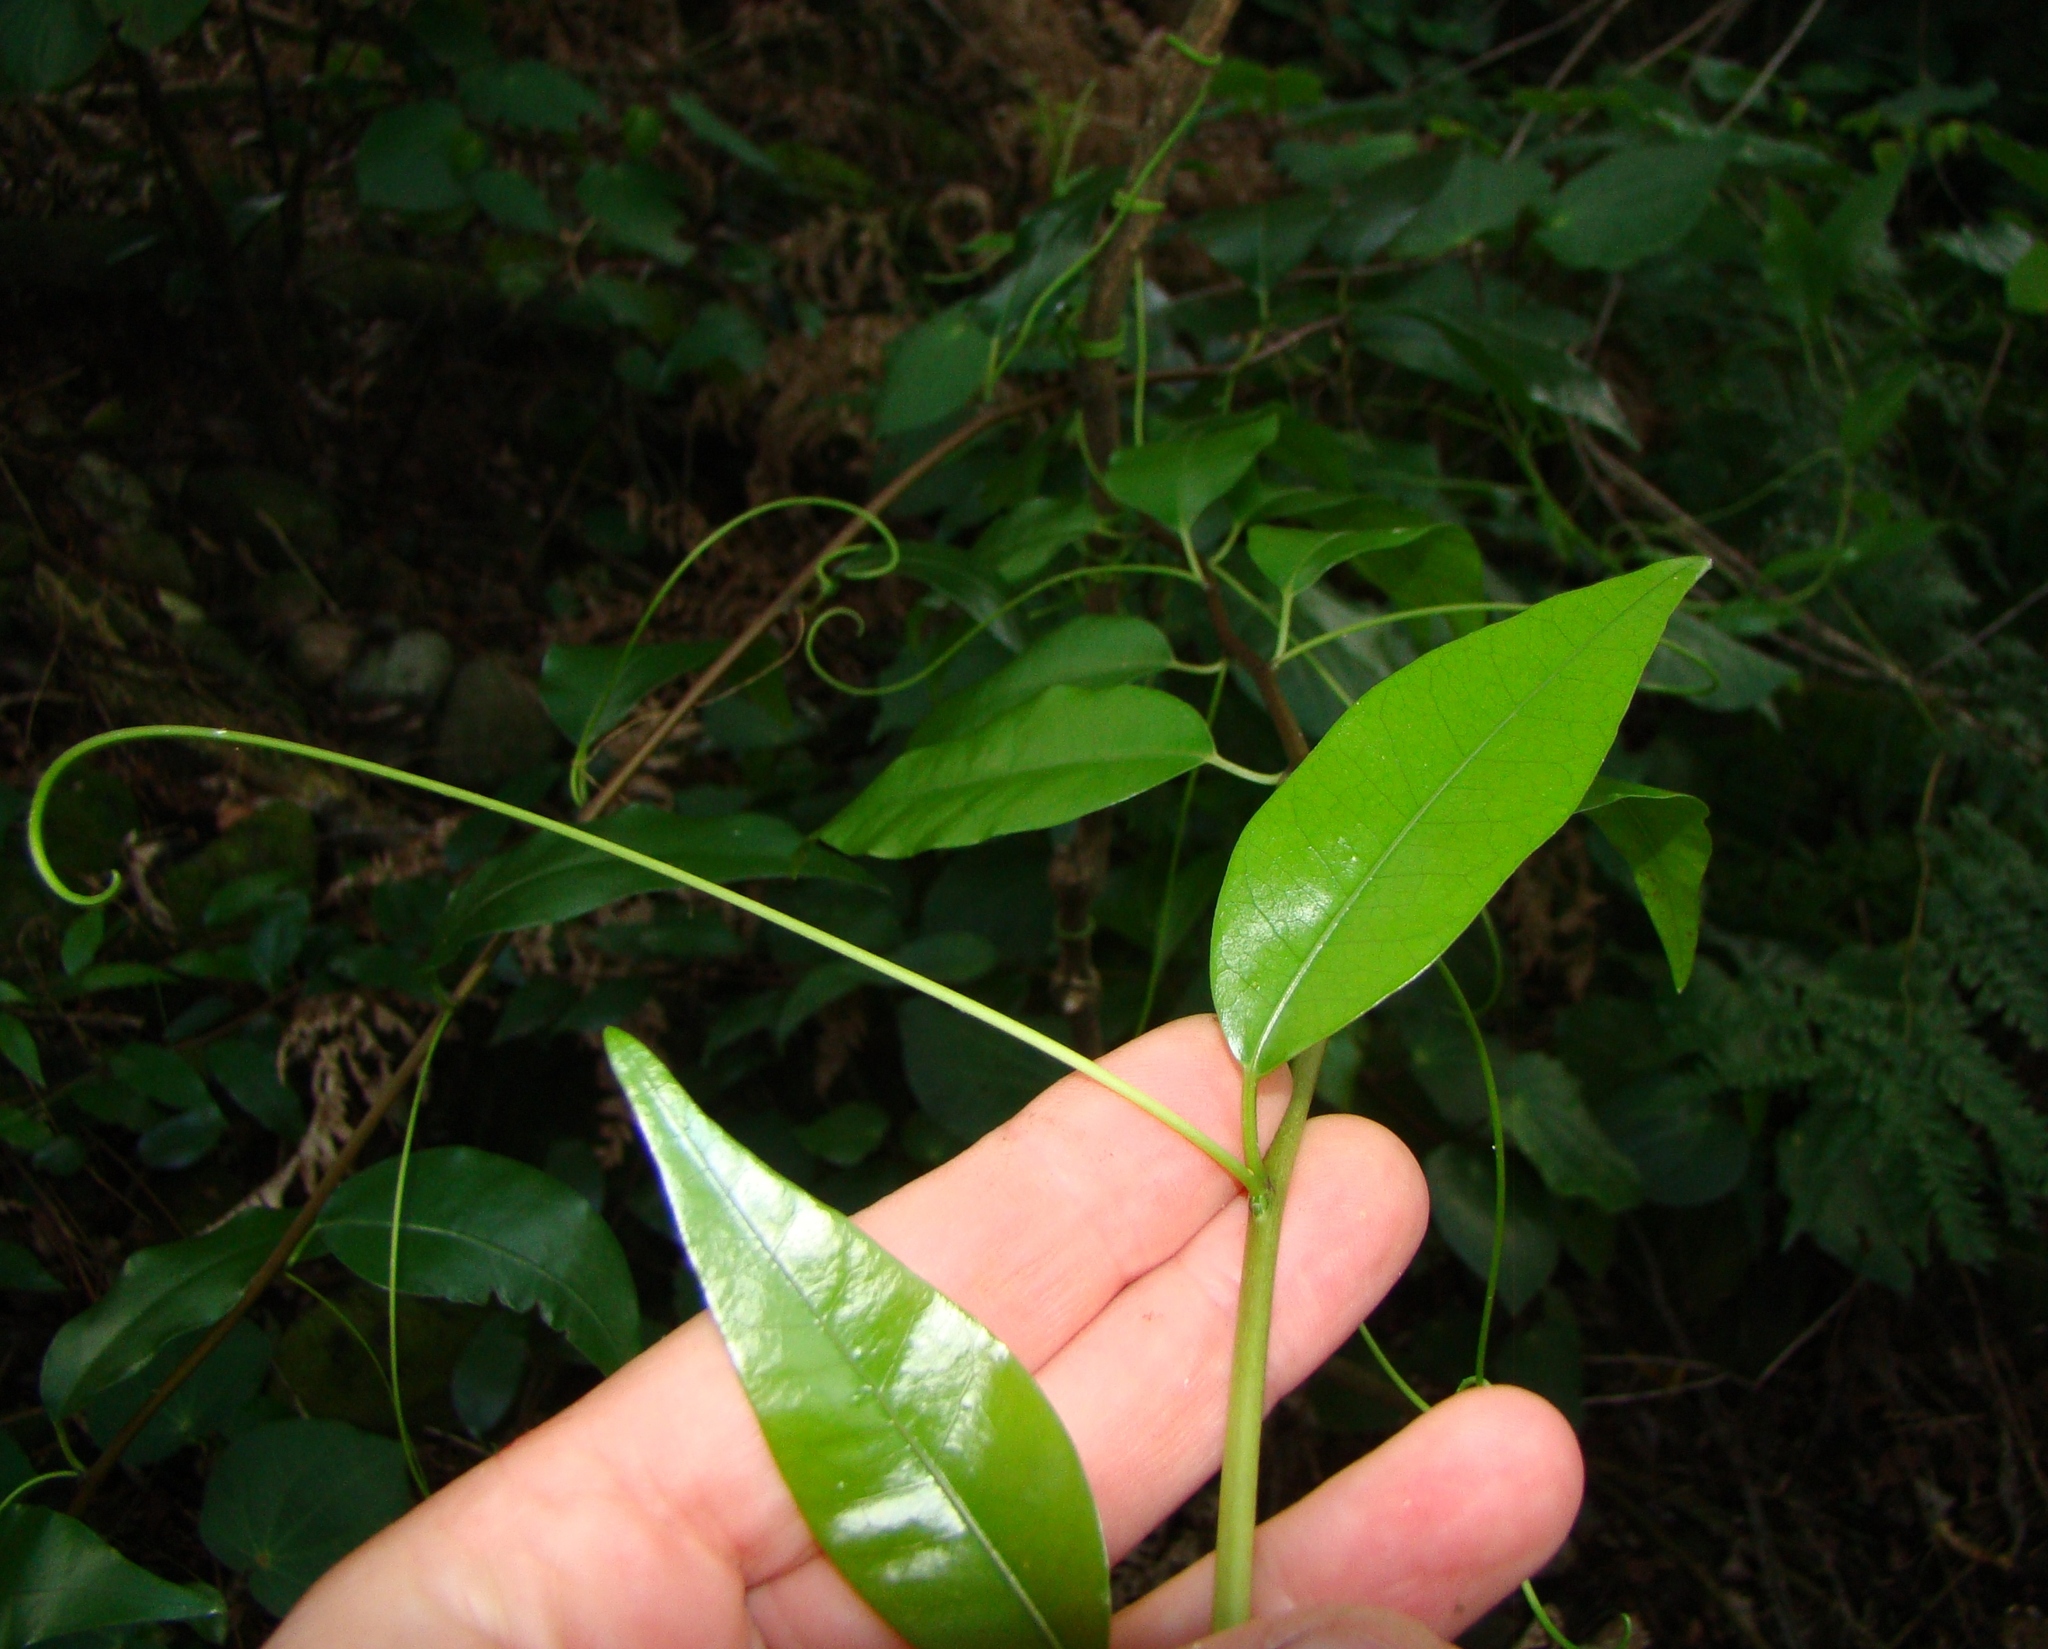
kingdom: Plantae
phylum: Tracheophyta
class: Magnoliopsida
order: Malpighiales
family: Passifloraceae
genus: Passiflora
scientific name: Passiflora tetrandra
